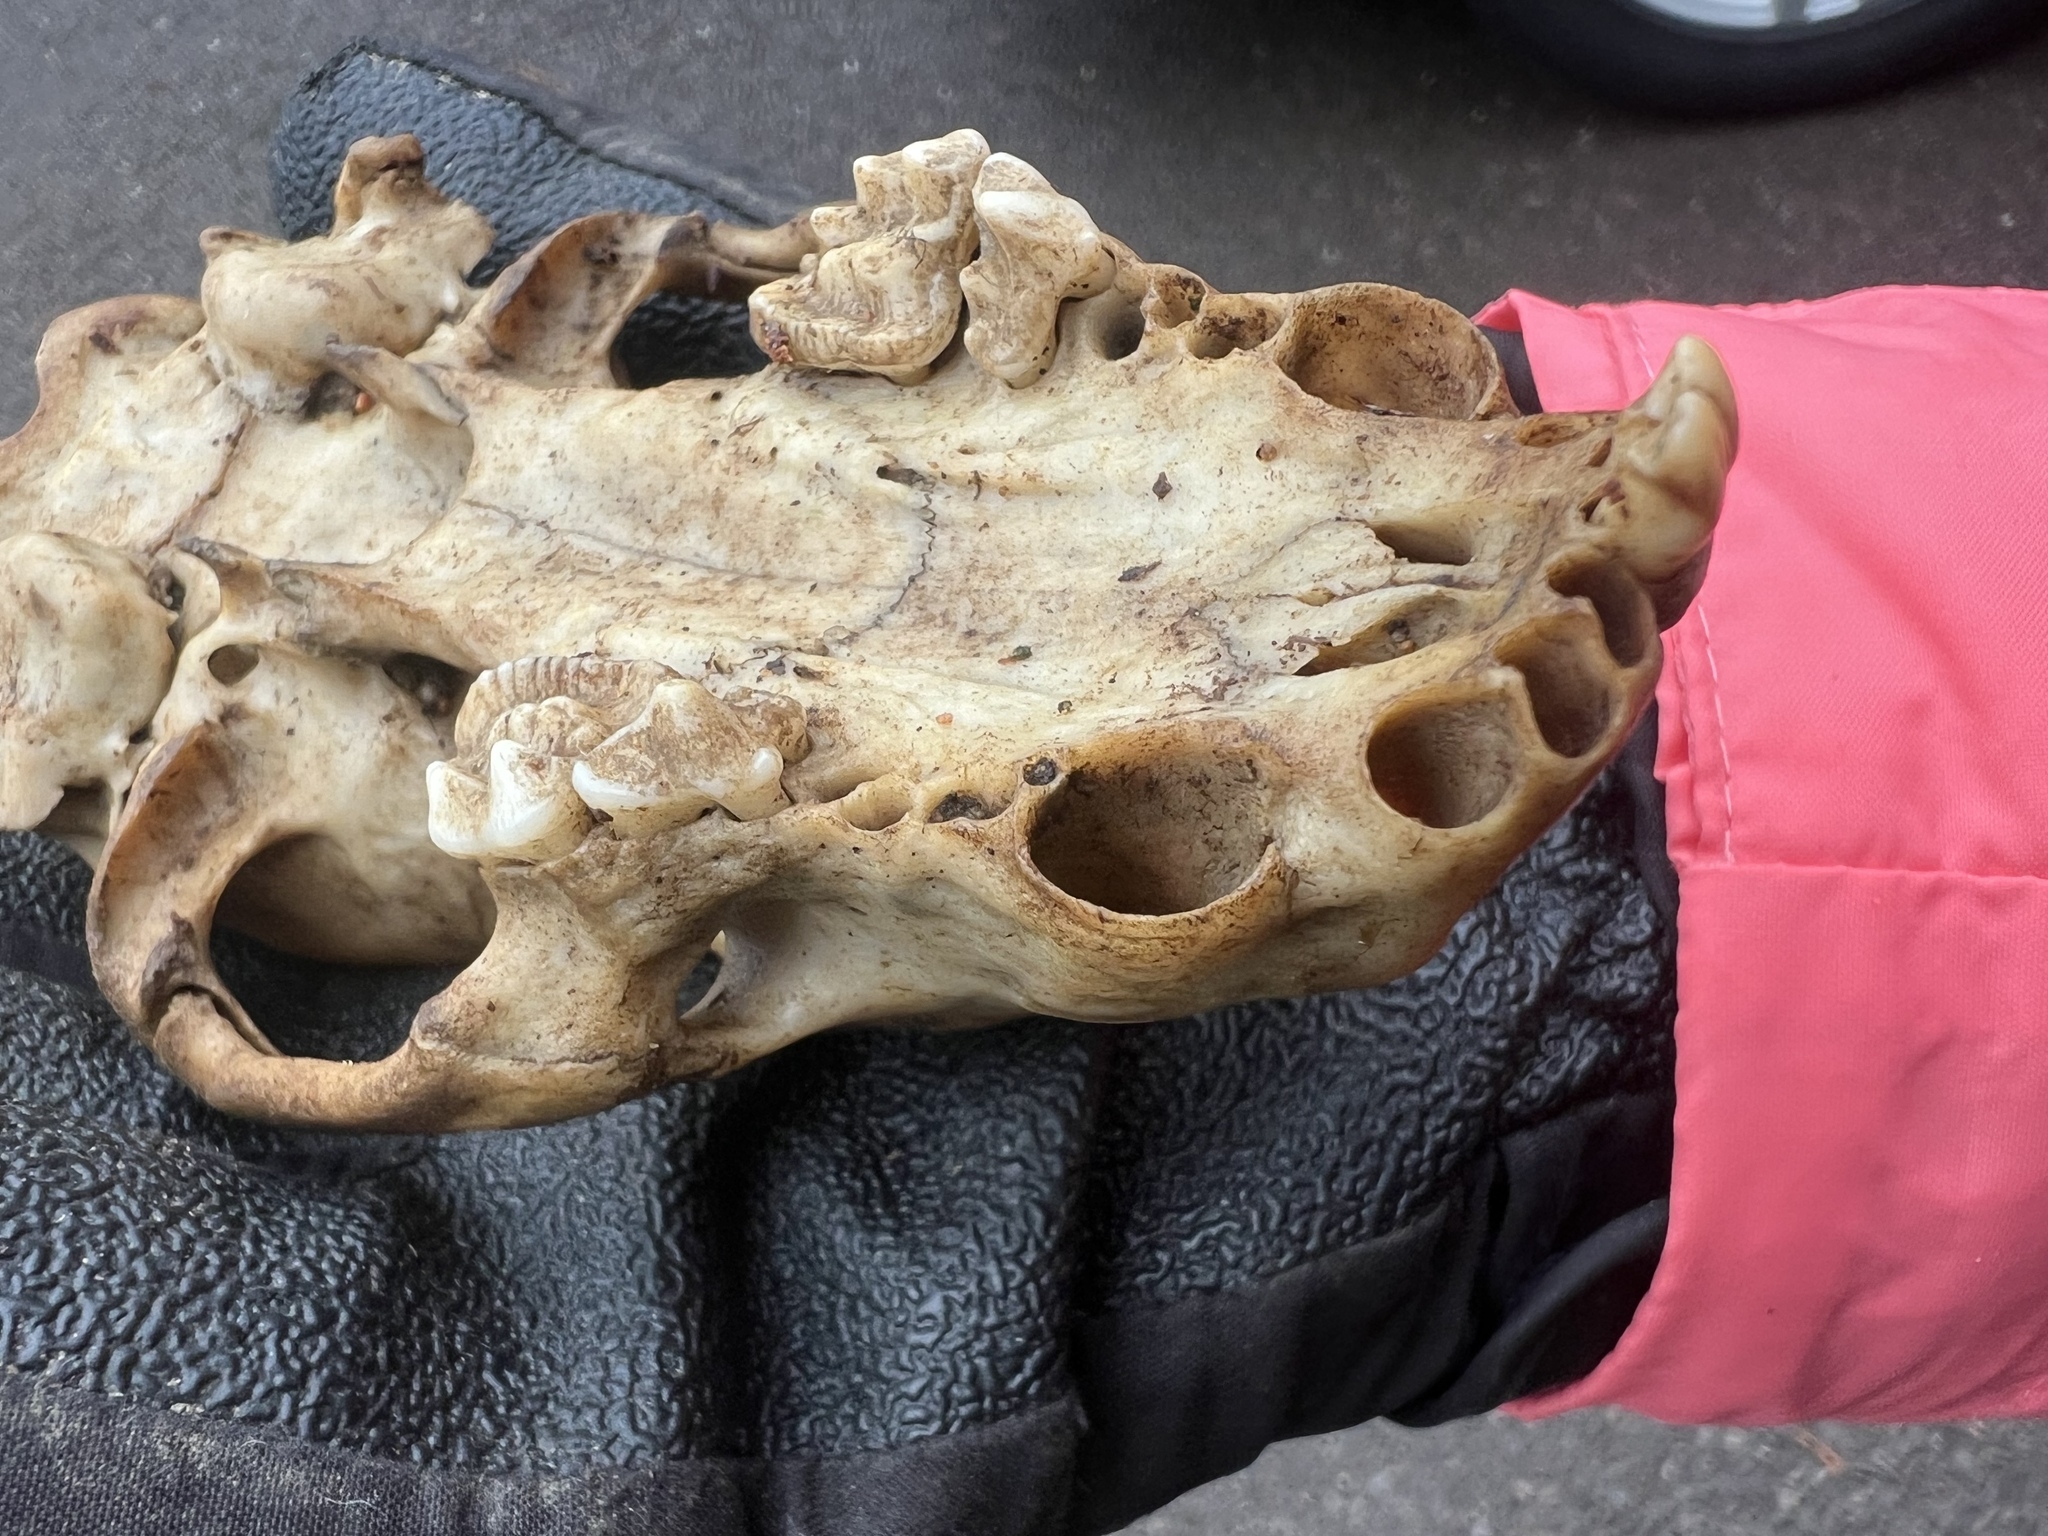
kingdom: Animalia
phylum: Chordata
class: Mammalia
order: Carnivora
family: Mustelidae
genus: Meles
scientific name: Meles meles
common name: Eurasian badger
